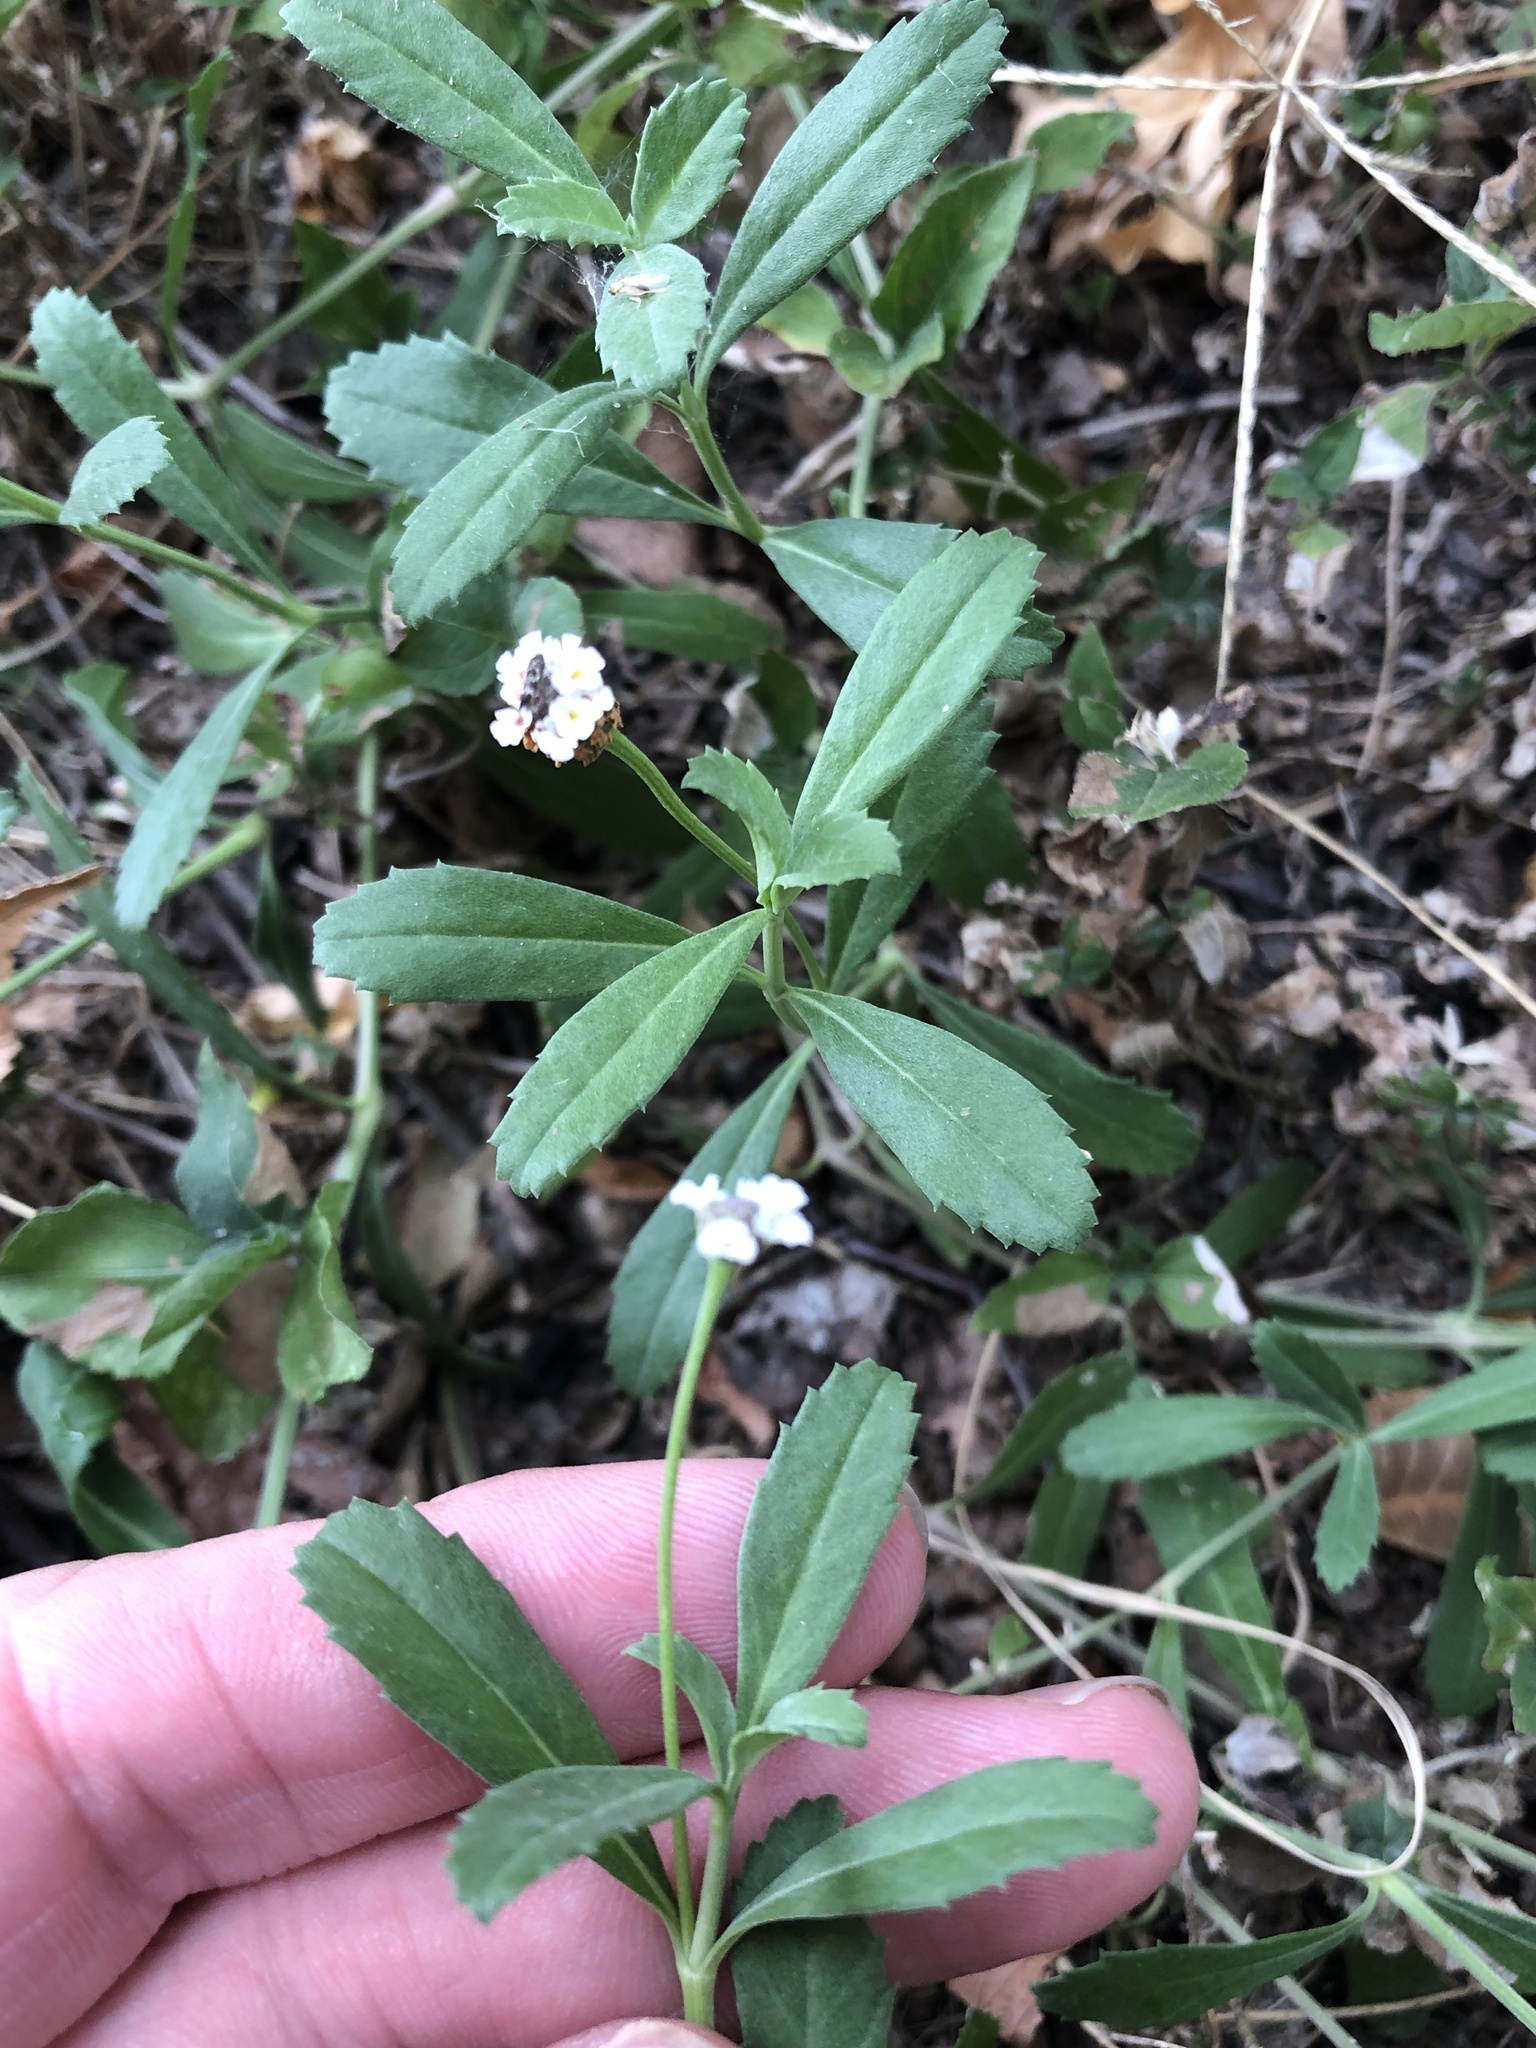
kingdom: Plantae
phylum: Tracheophyta
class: Magnoliopsida
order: Lamiales
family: Verbenaceae
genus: Phyla
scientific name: Phyla nodiflora
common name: Frogfruit
